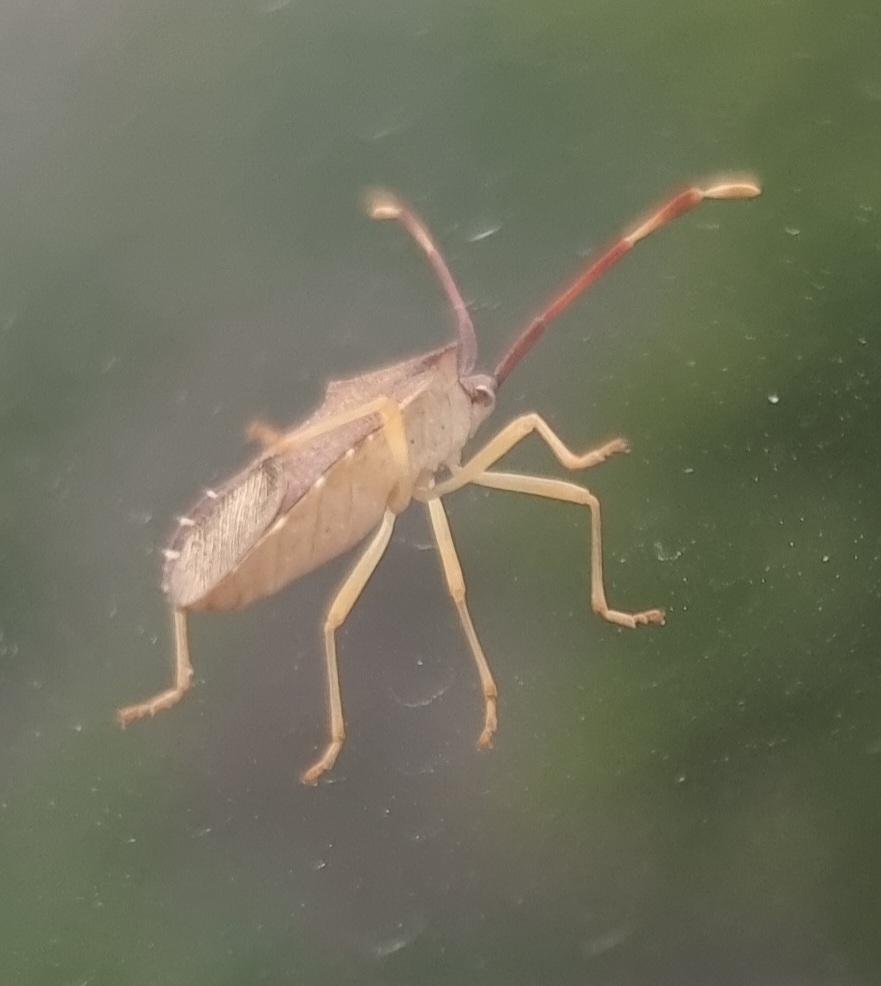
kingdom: Animalia
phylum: Arthropoda
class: Insecta
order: Hemiptera
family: Coreidae
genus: Gonocerus
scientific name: Gonocerus acuteangulatus
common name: Box bug
